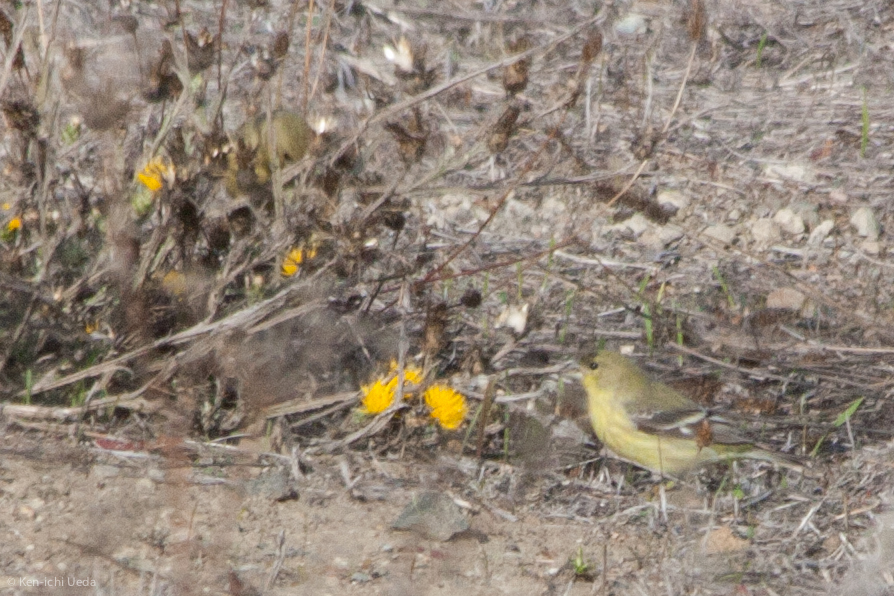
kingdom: Animalia
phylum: Chordata
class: Aves
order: Passeriformes
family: Fringillidae
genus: Spinus
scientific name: Spinus psaltria
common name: Lesser goldfinch
